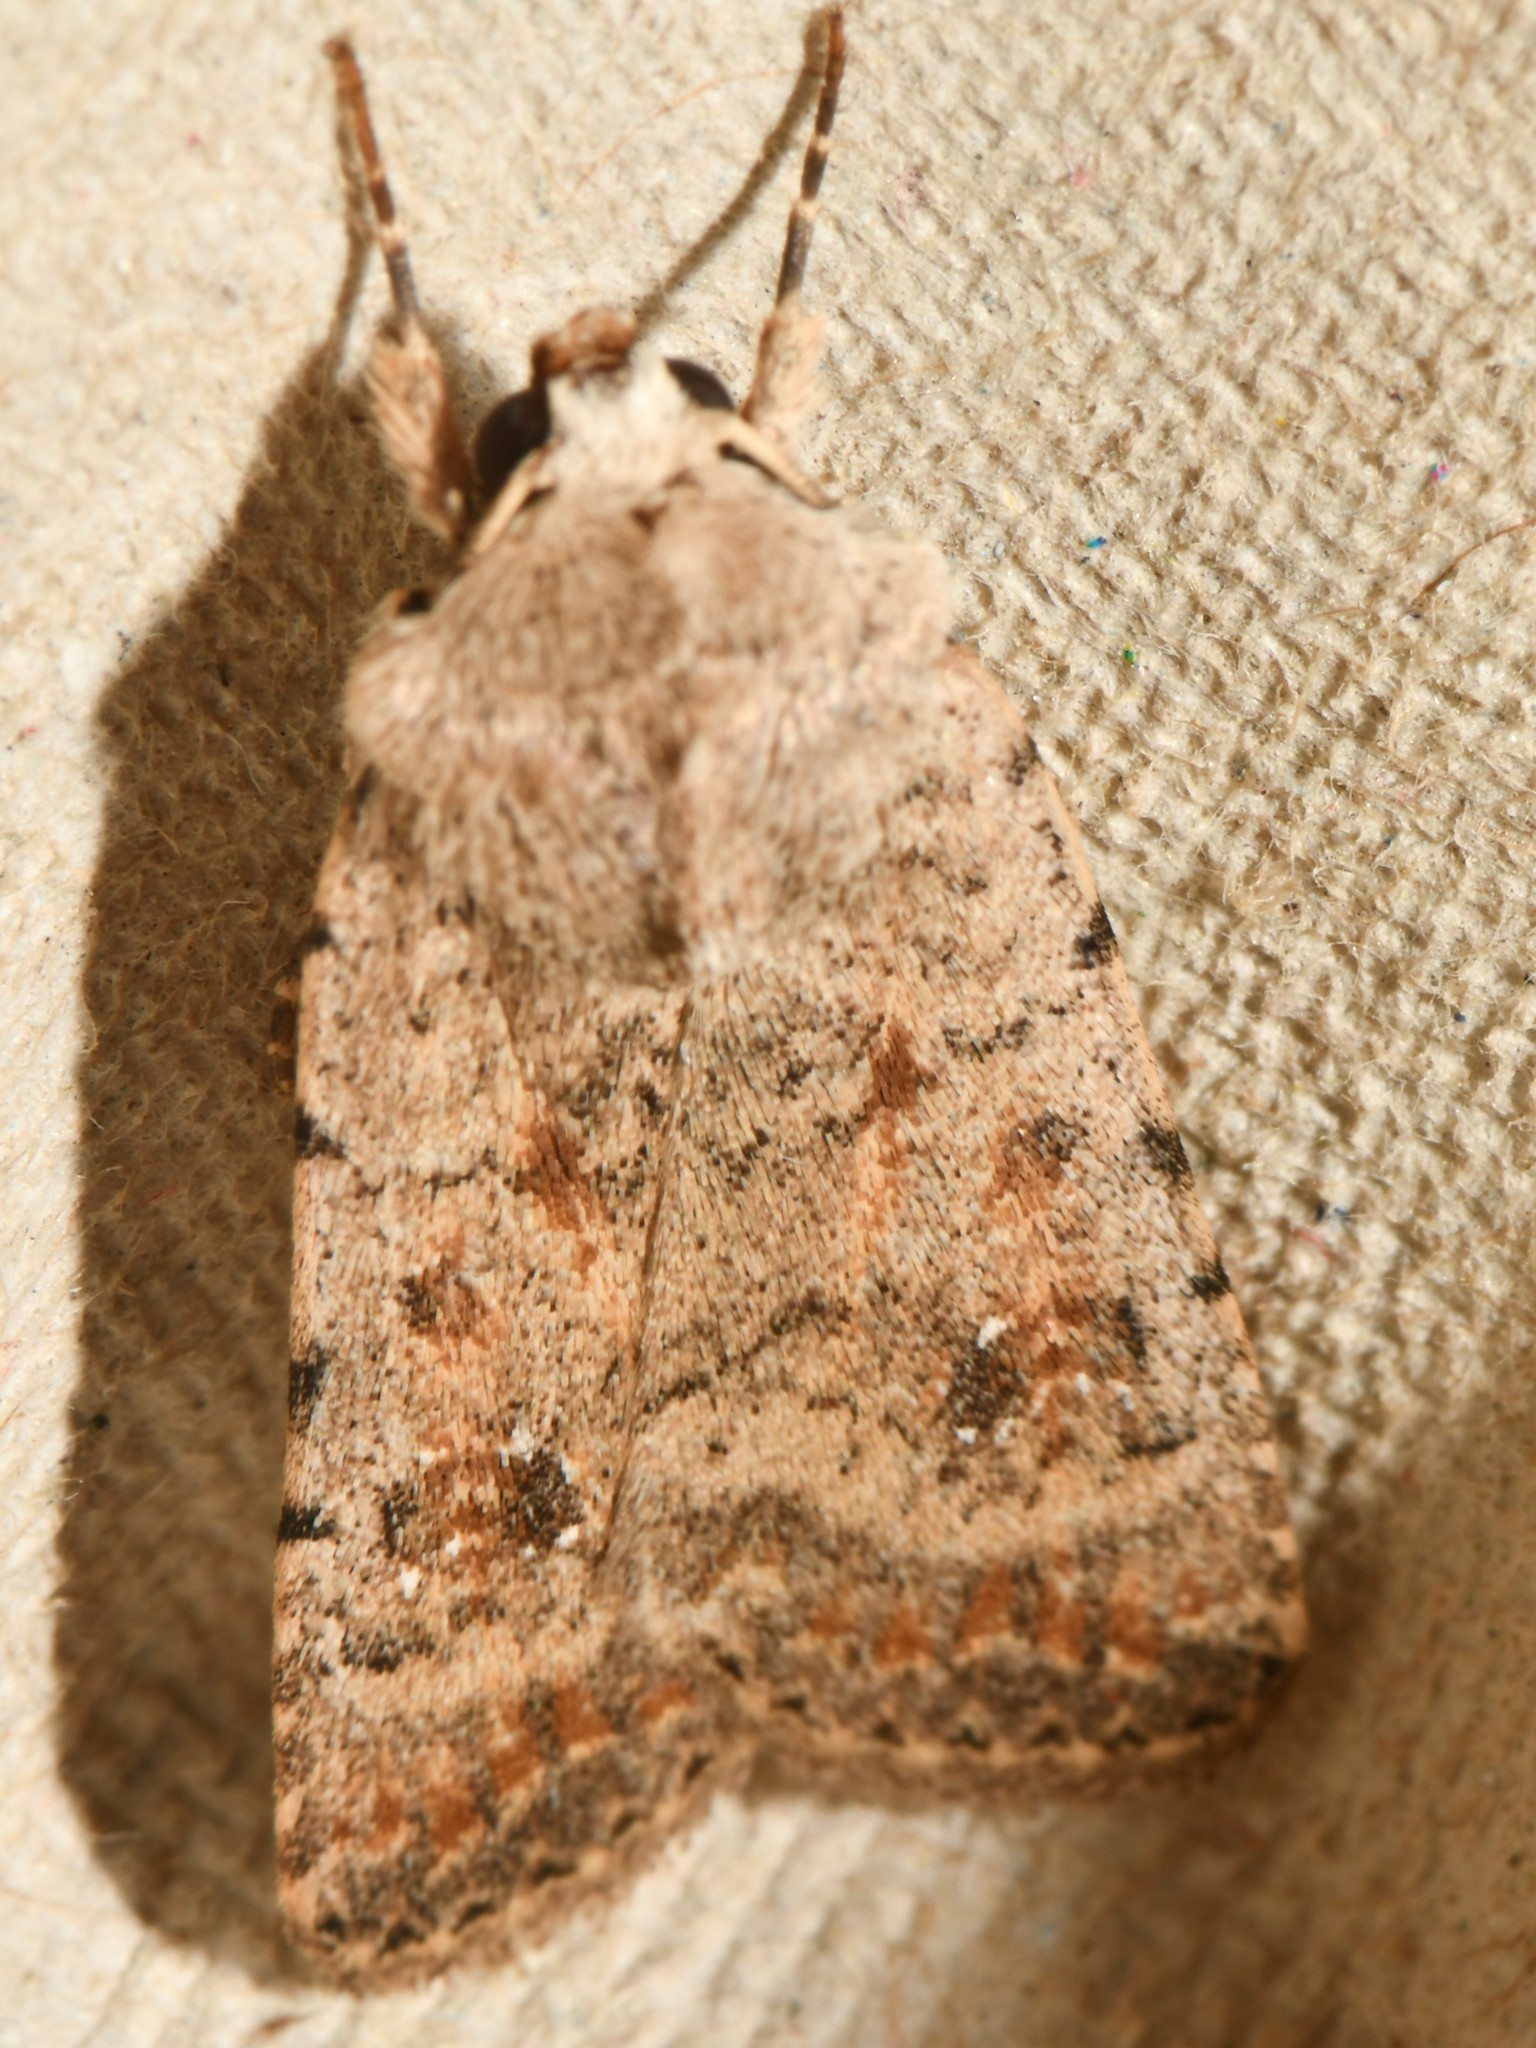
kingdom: Animalia
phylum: Arthropoda
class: Insecta
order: Lepidoptera
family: Noctuidae
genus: Caradrina
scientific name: Caradrina clavipalpis
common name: Pale mottled willow
